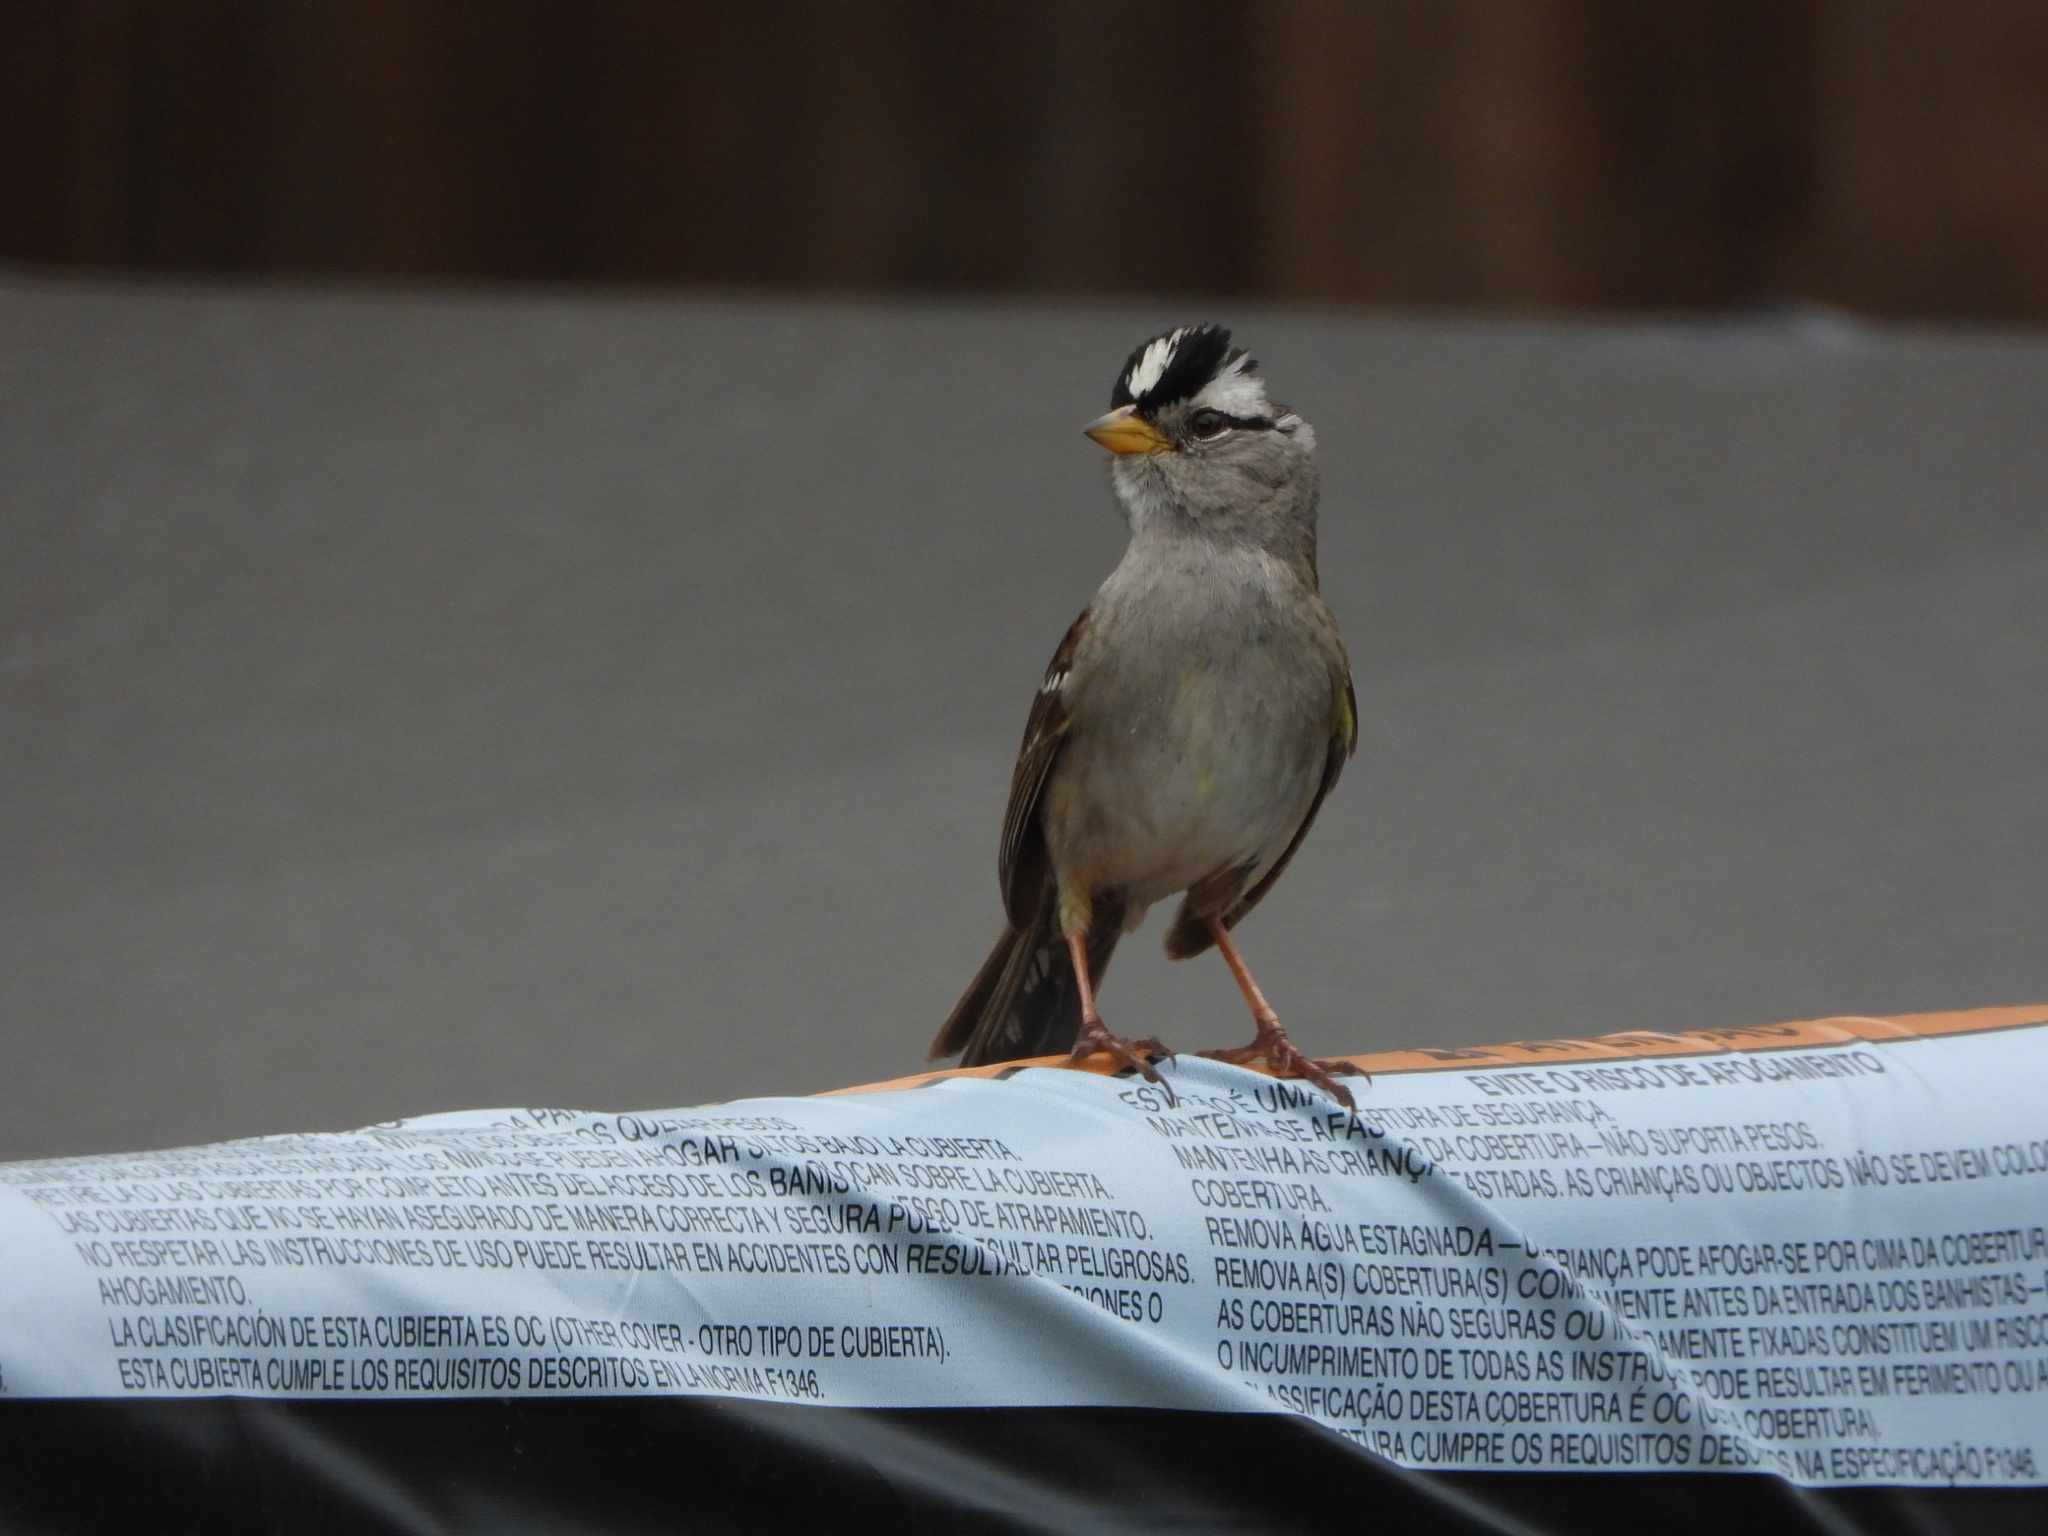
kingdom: Animalia
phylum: Chordata
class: Aves
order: Passeriformes
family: Passerellidae
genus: Zonotrichia
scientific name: Zonotrichia leucophrys
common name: White-crowned sparrow
